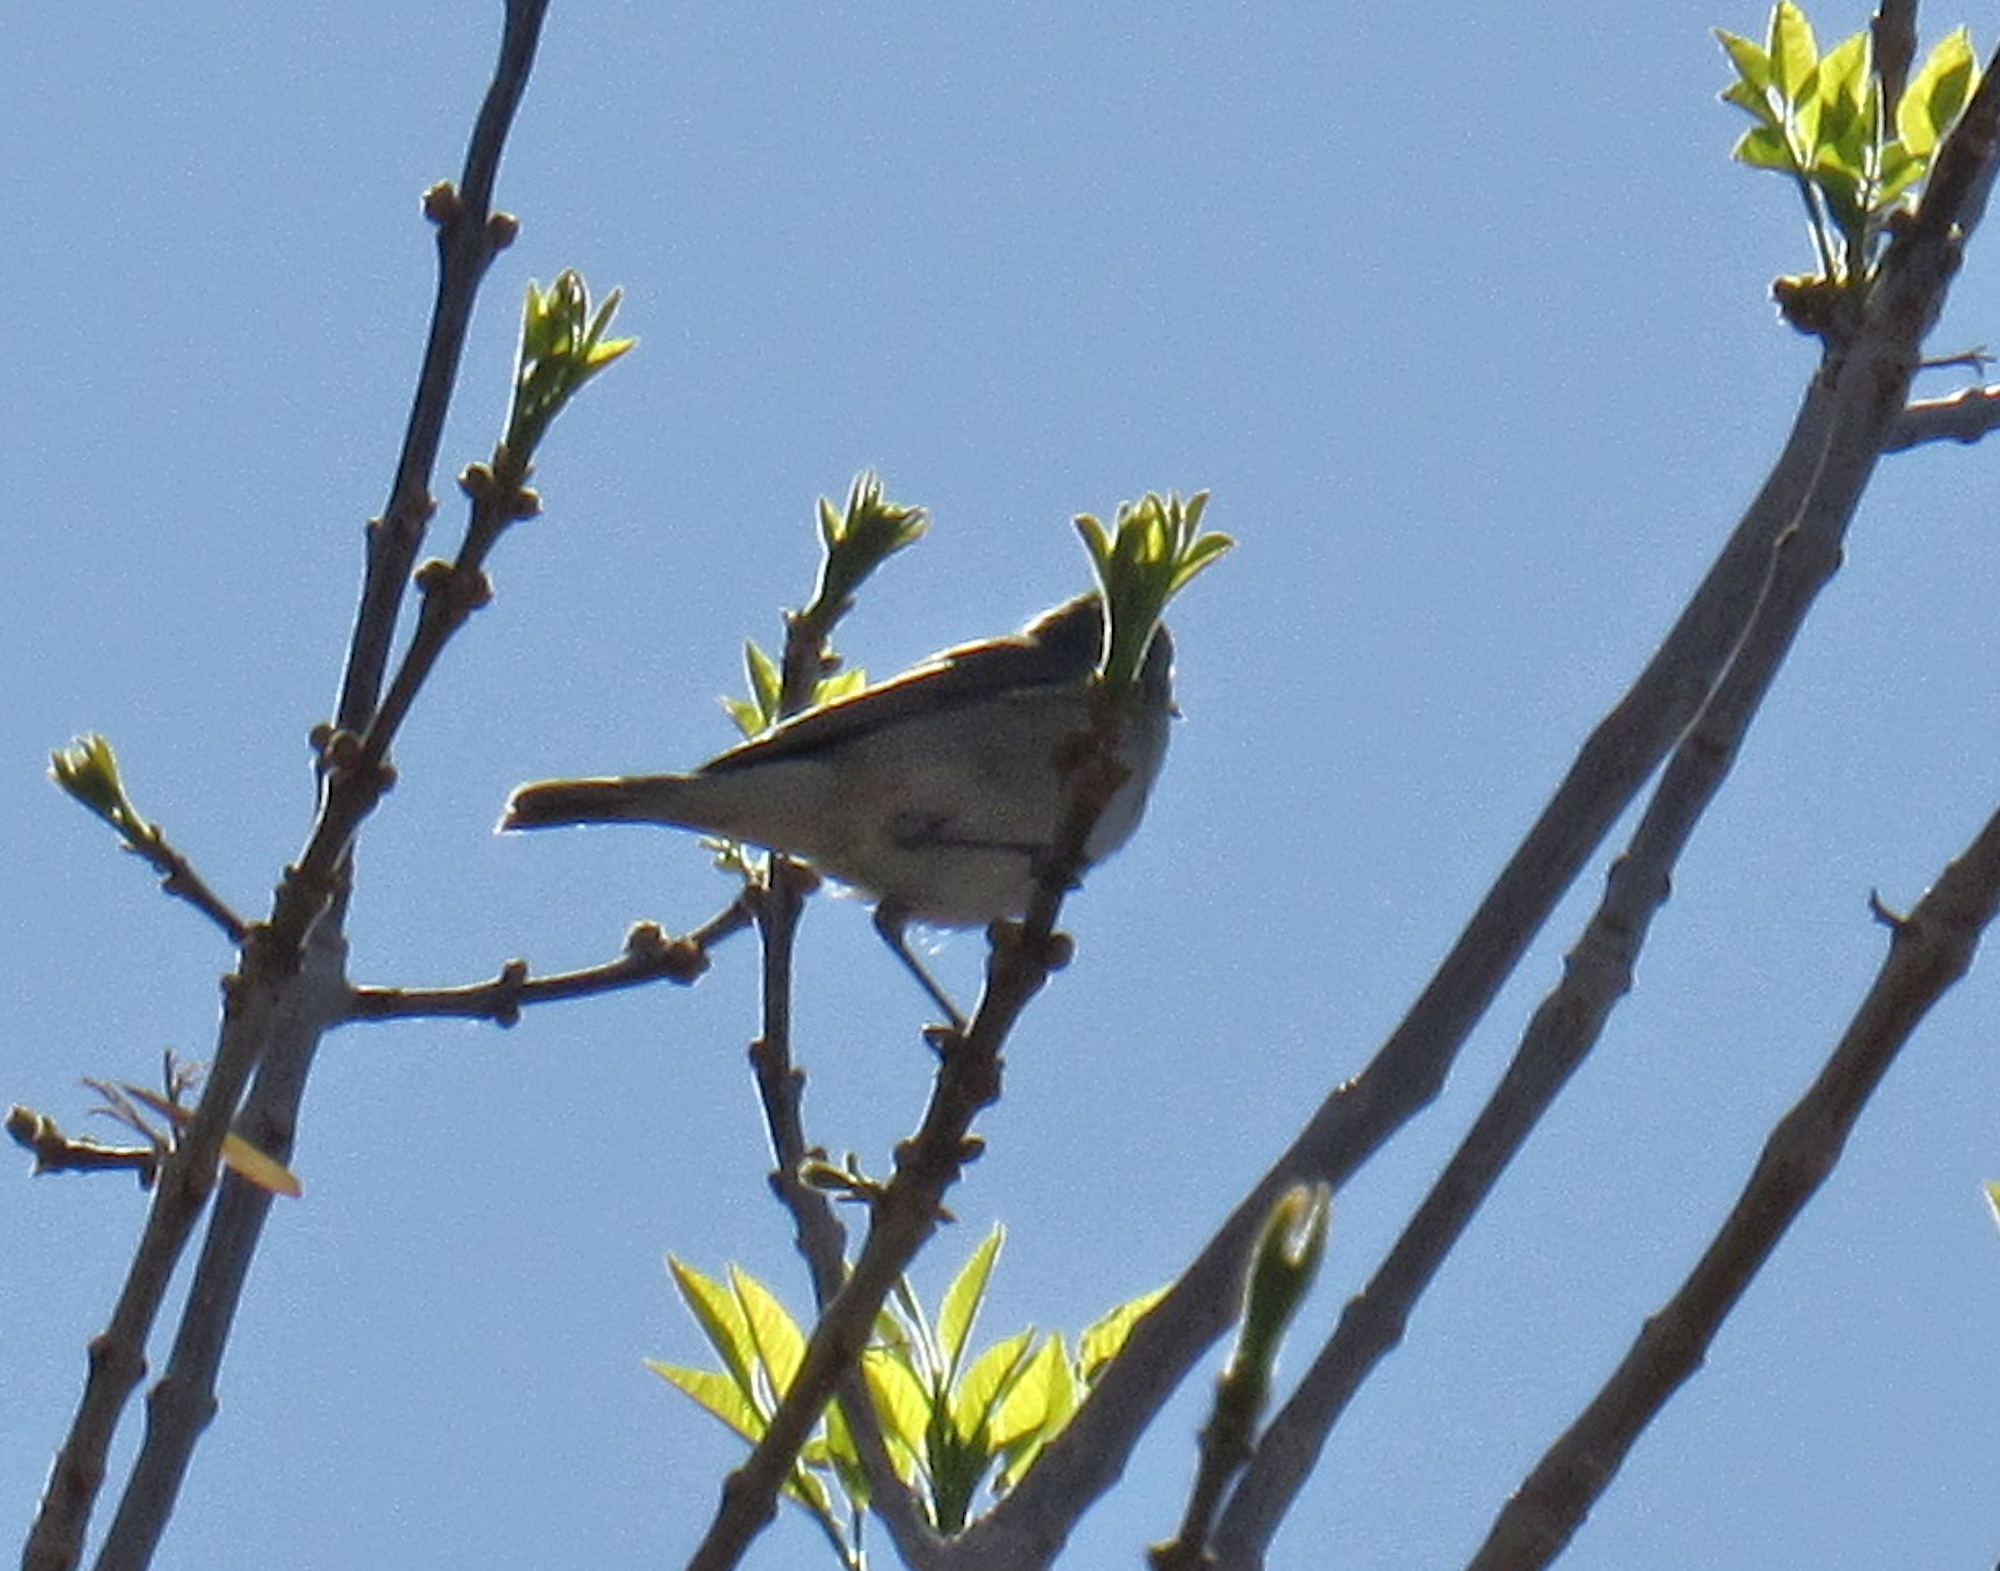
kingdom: Animalia
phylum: Chordata
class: Aves
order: Passeriformes
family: Parulidae
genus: Leiothlypis
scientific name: Leiothlypis luciae
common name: Lucy's warbler
